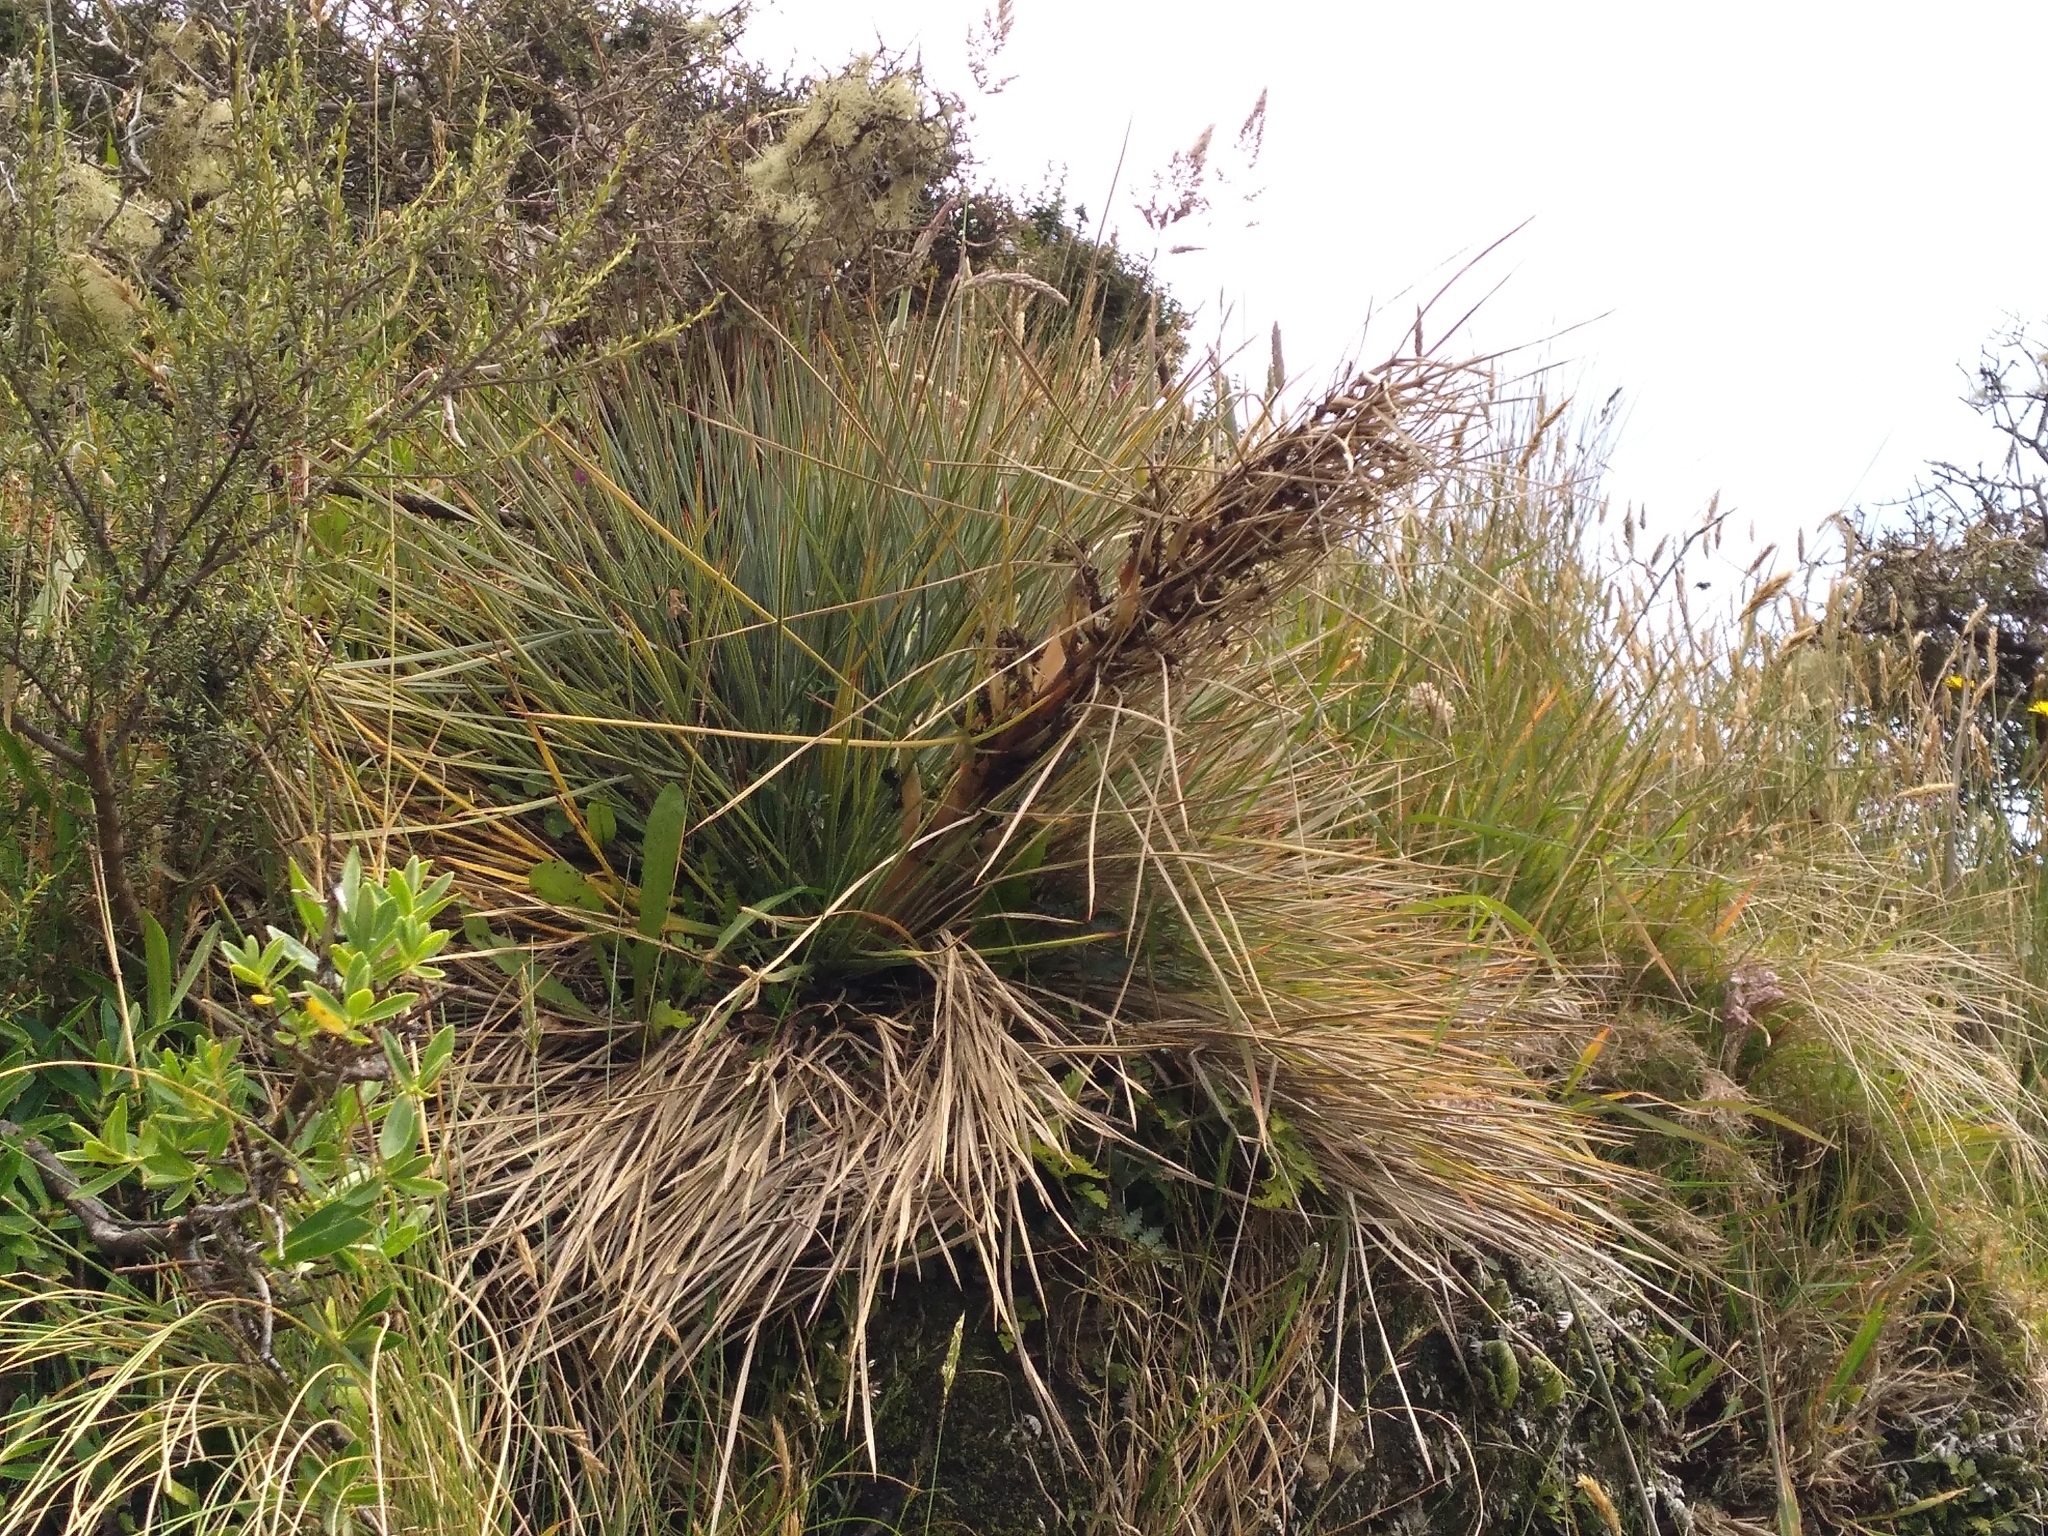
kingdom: Plantae
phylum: Tracheophyta
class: Magnoliopsida
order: Apiales
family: Apiaceae
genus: Aciphylla
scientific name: Aciphylla squarrosa
